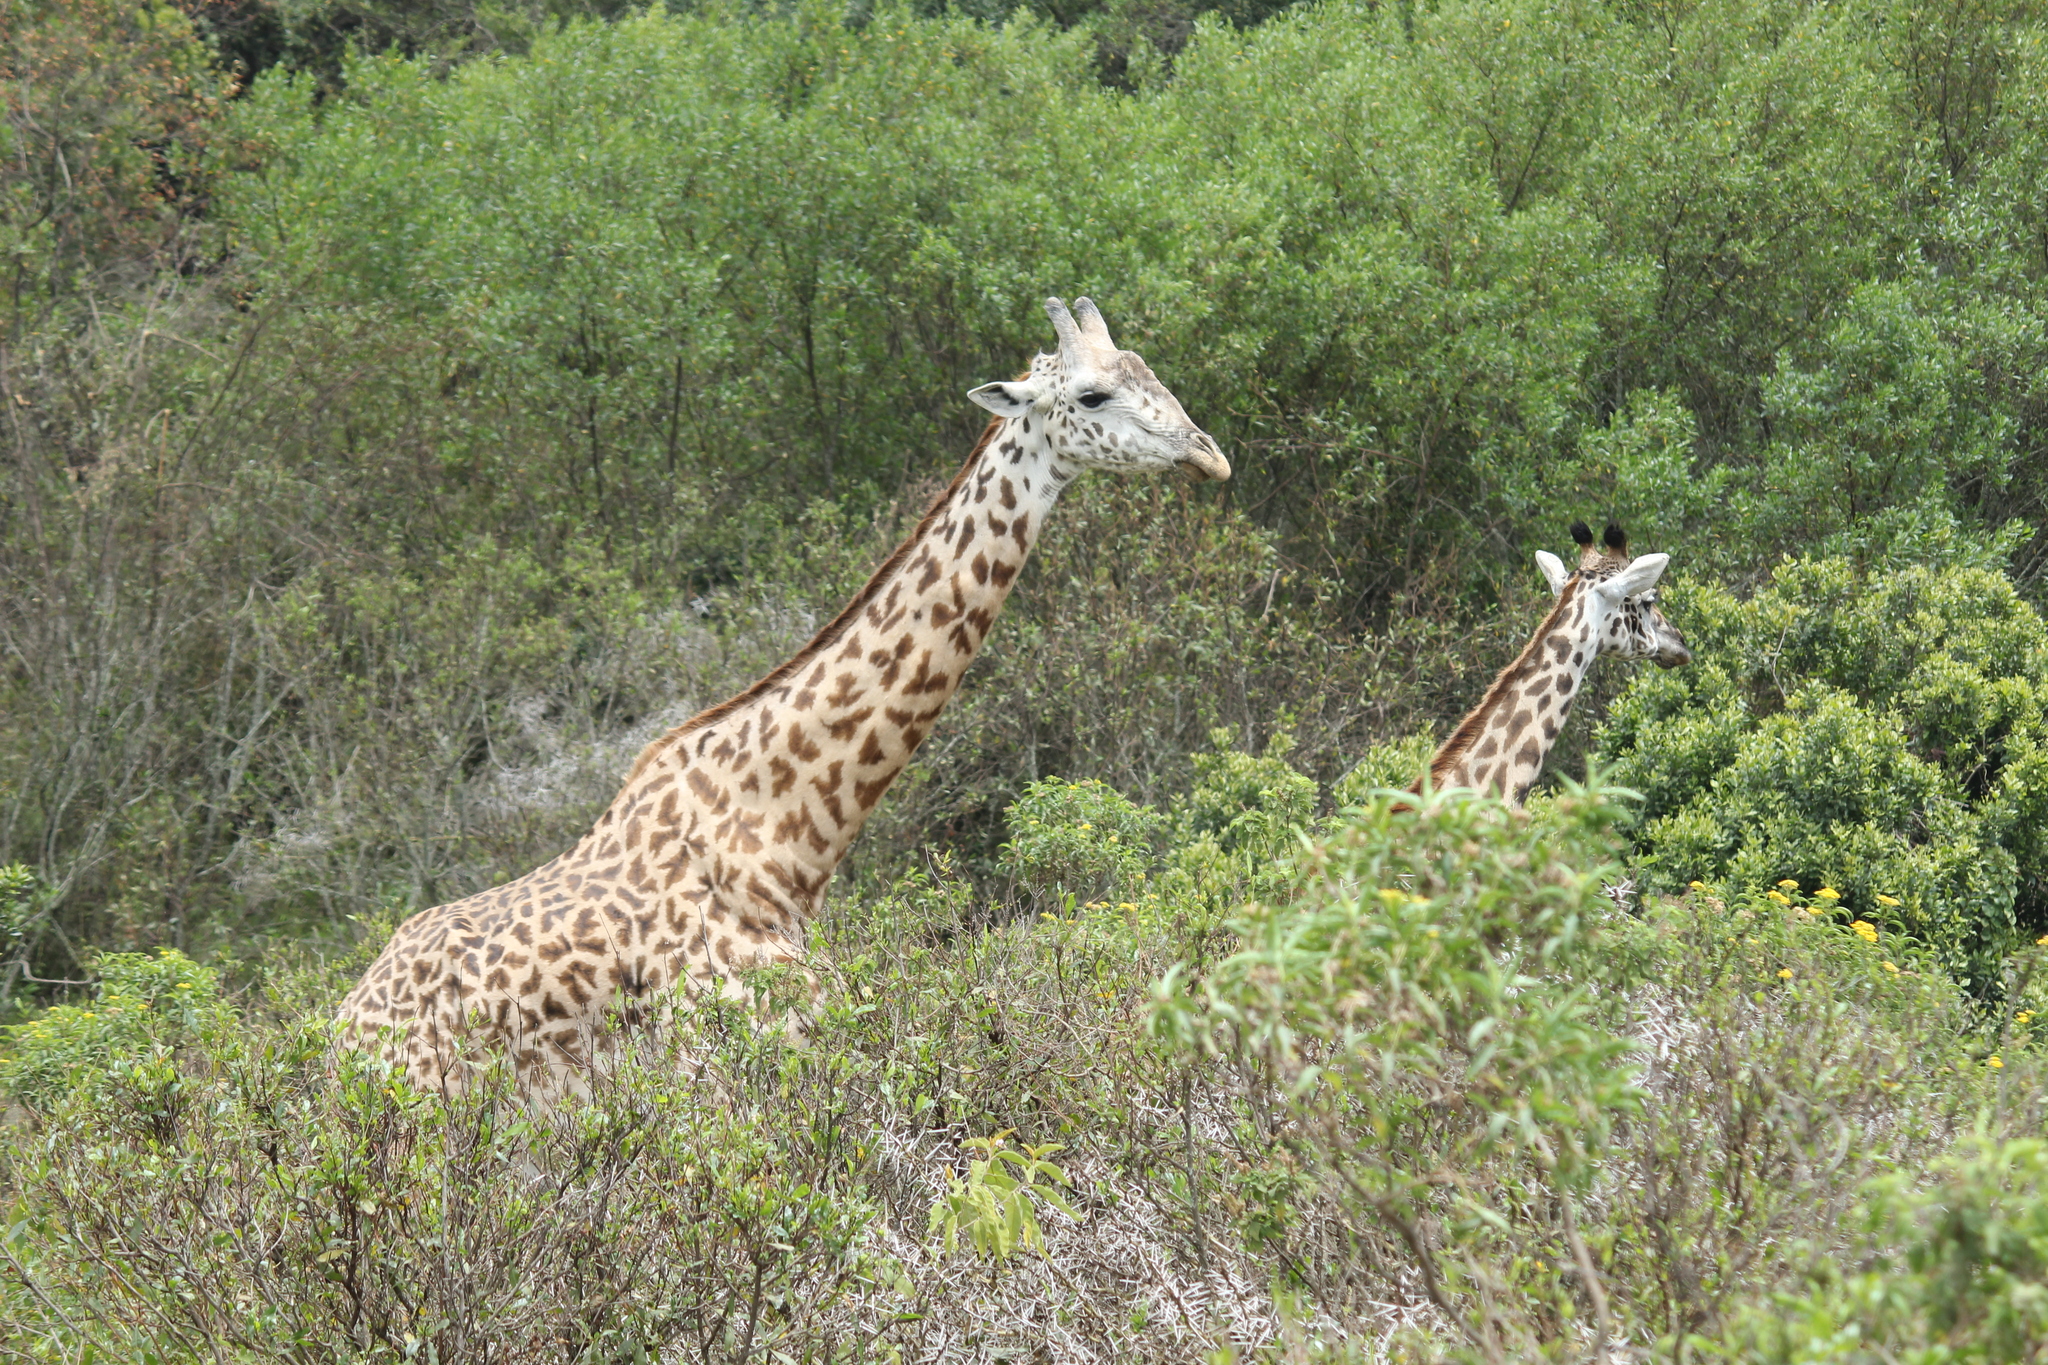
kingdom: Animalia
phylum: Chordata
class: Mammalia
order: Artiodactyla
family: Giraffidae
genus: Giraffa
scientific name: Giraffa tippelskirchi
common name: Masai giraffe
